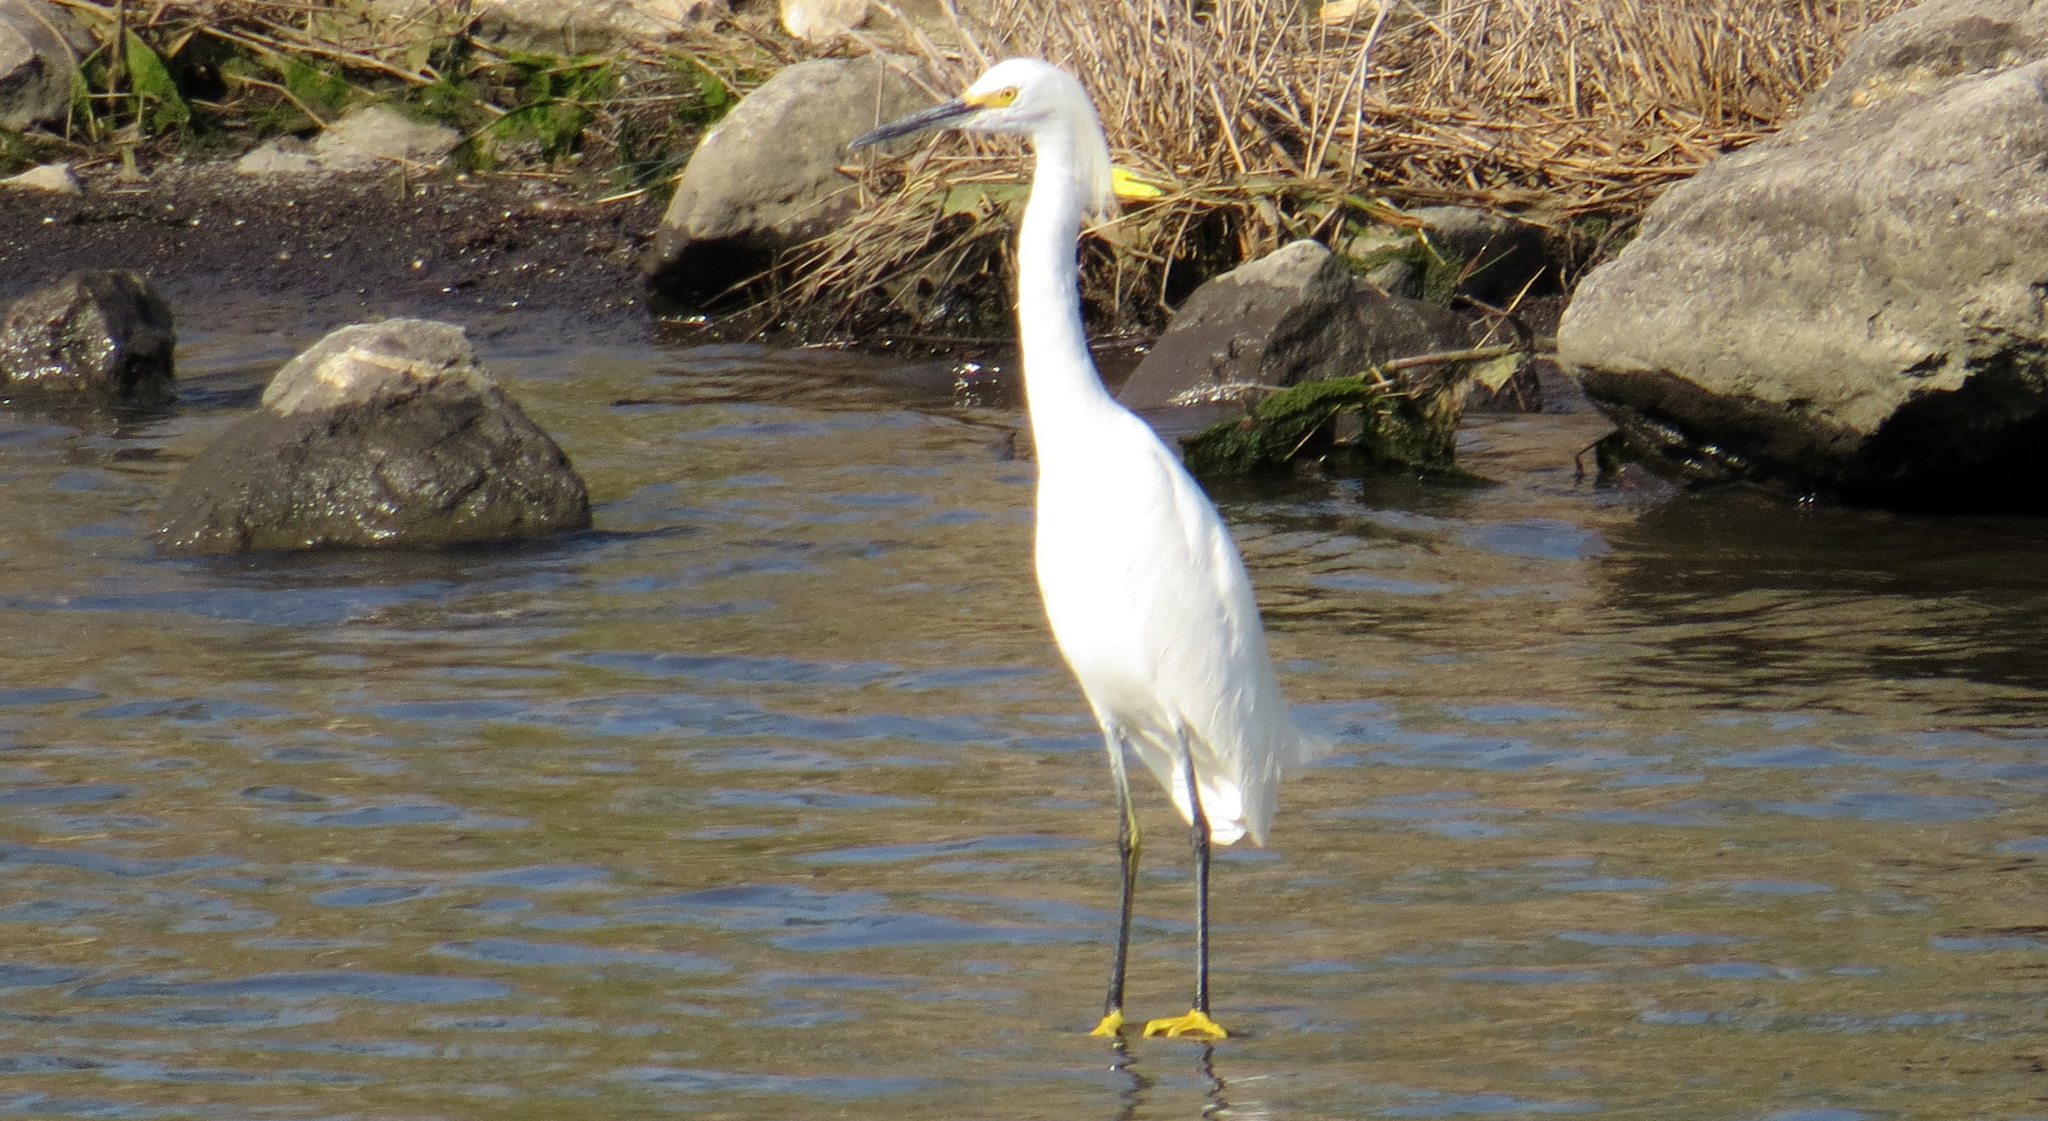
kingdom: Animalia
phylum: Chordata
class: Aves
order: Pelecaniformes
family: Ardeidae
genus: Egretta
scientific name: Egretta thula
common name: Snowy egret
